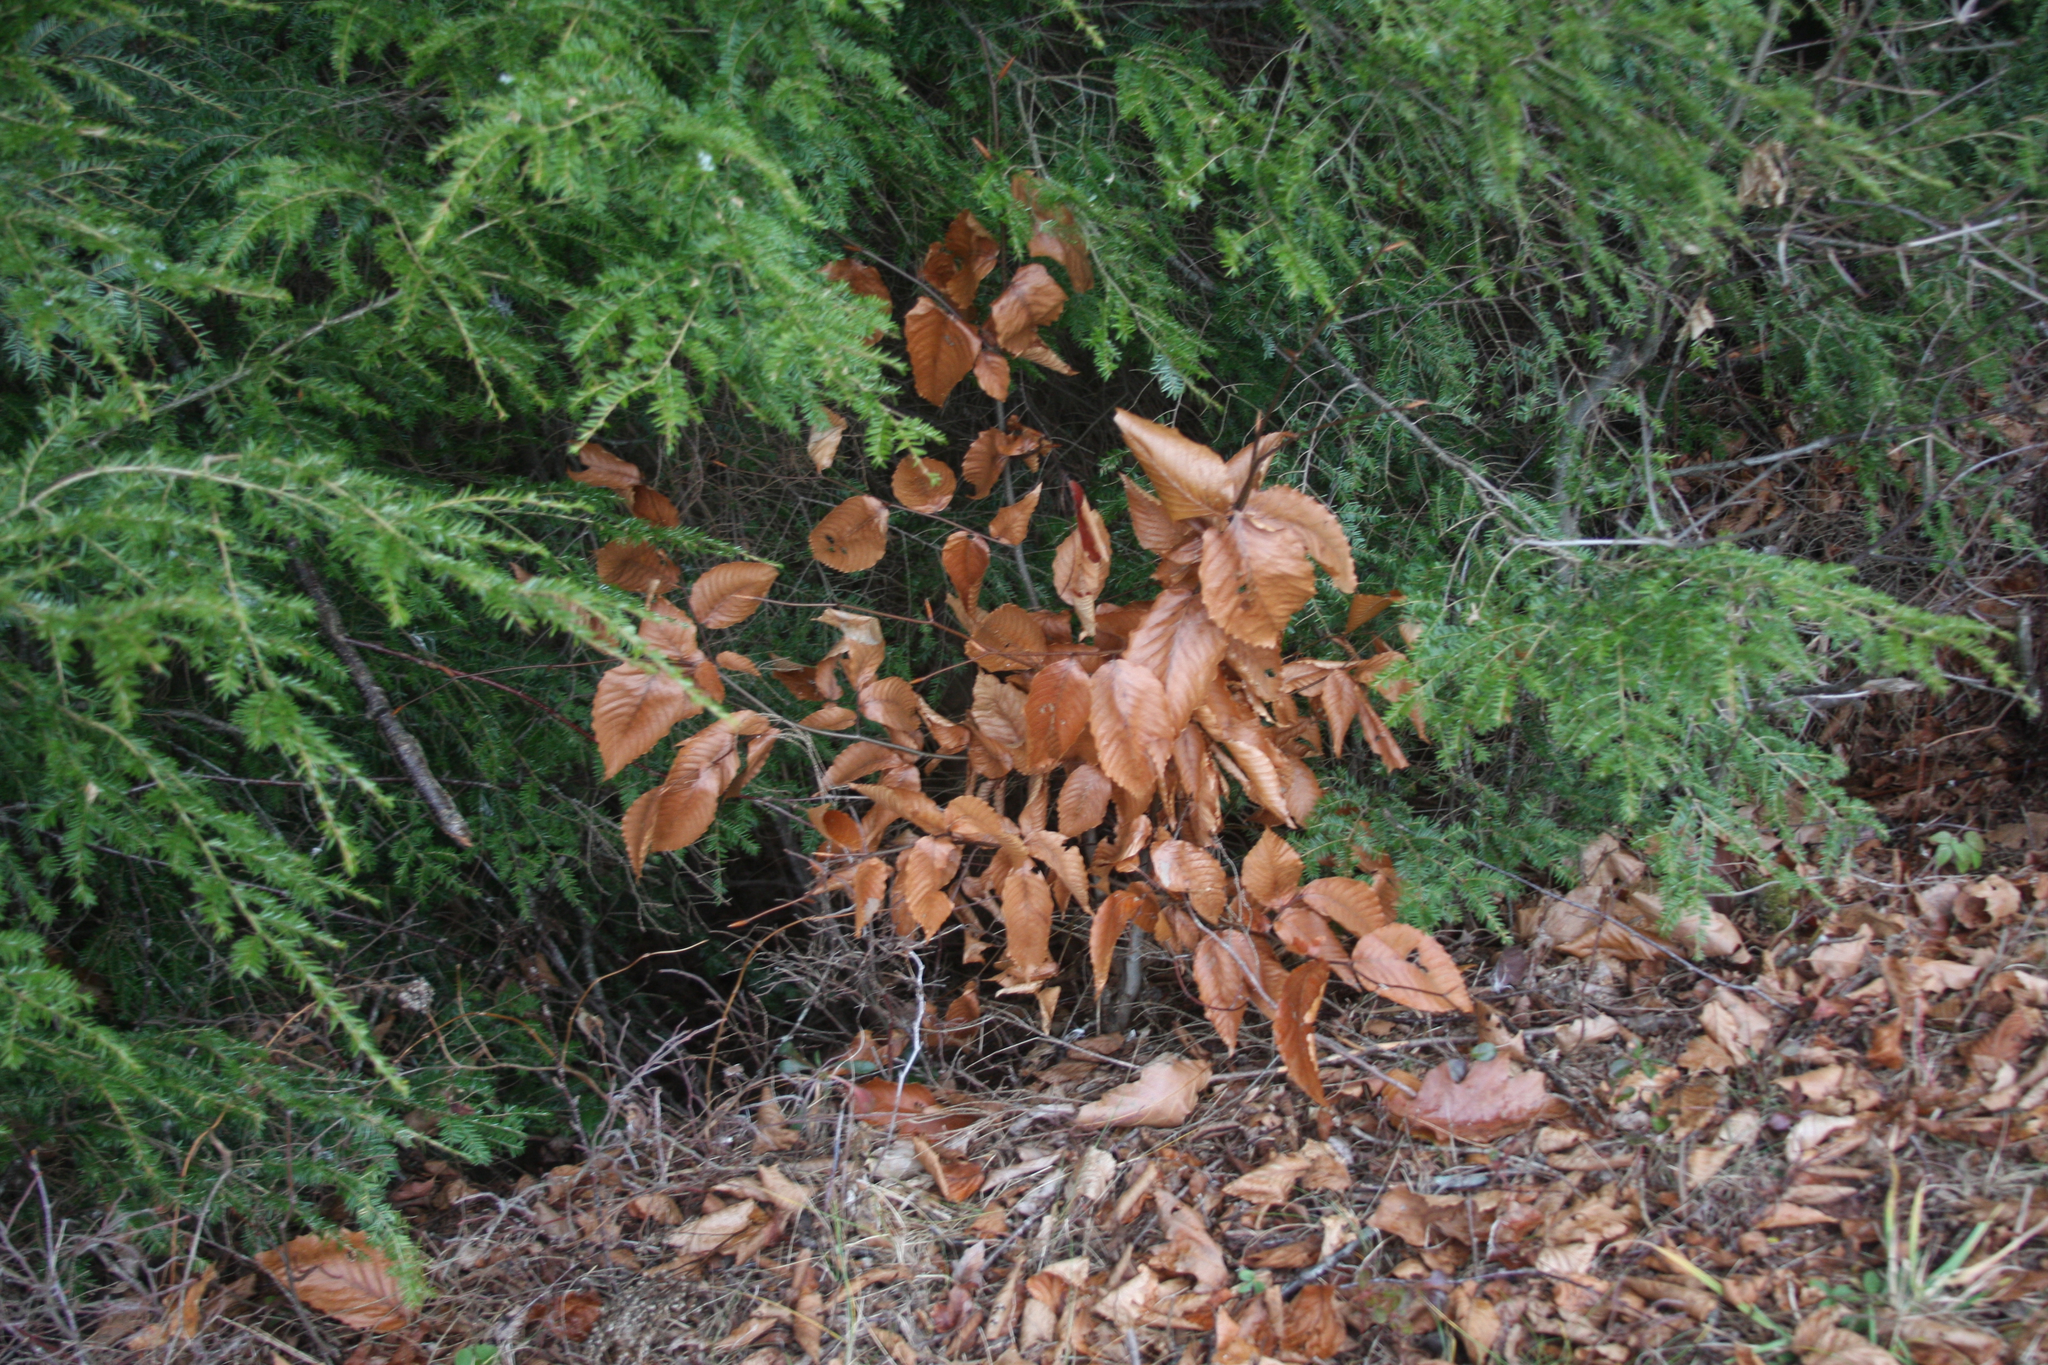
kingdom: Plantae
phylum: Tracheophyta
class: Magnoliopsida
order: Fagales
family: Fagaceae
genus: Fagus
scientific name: Fagus grandifolia
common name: American beech
